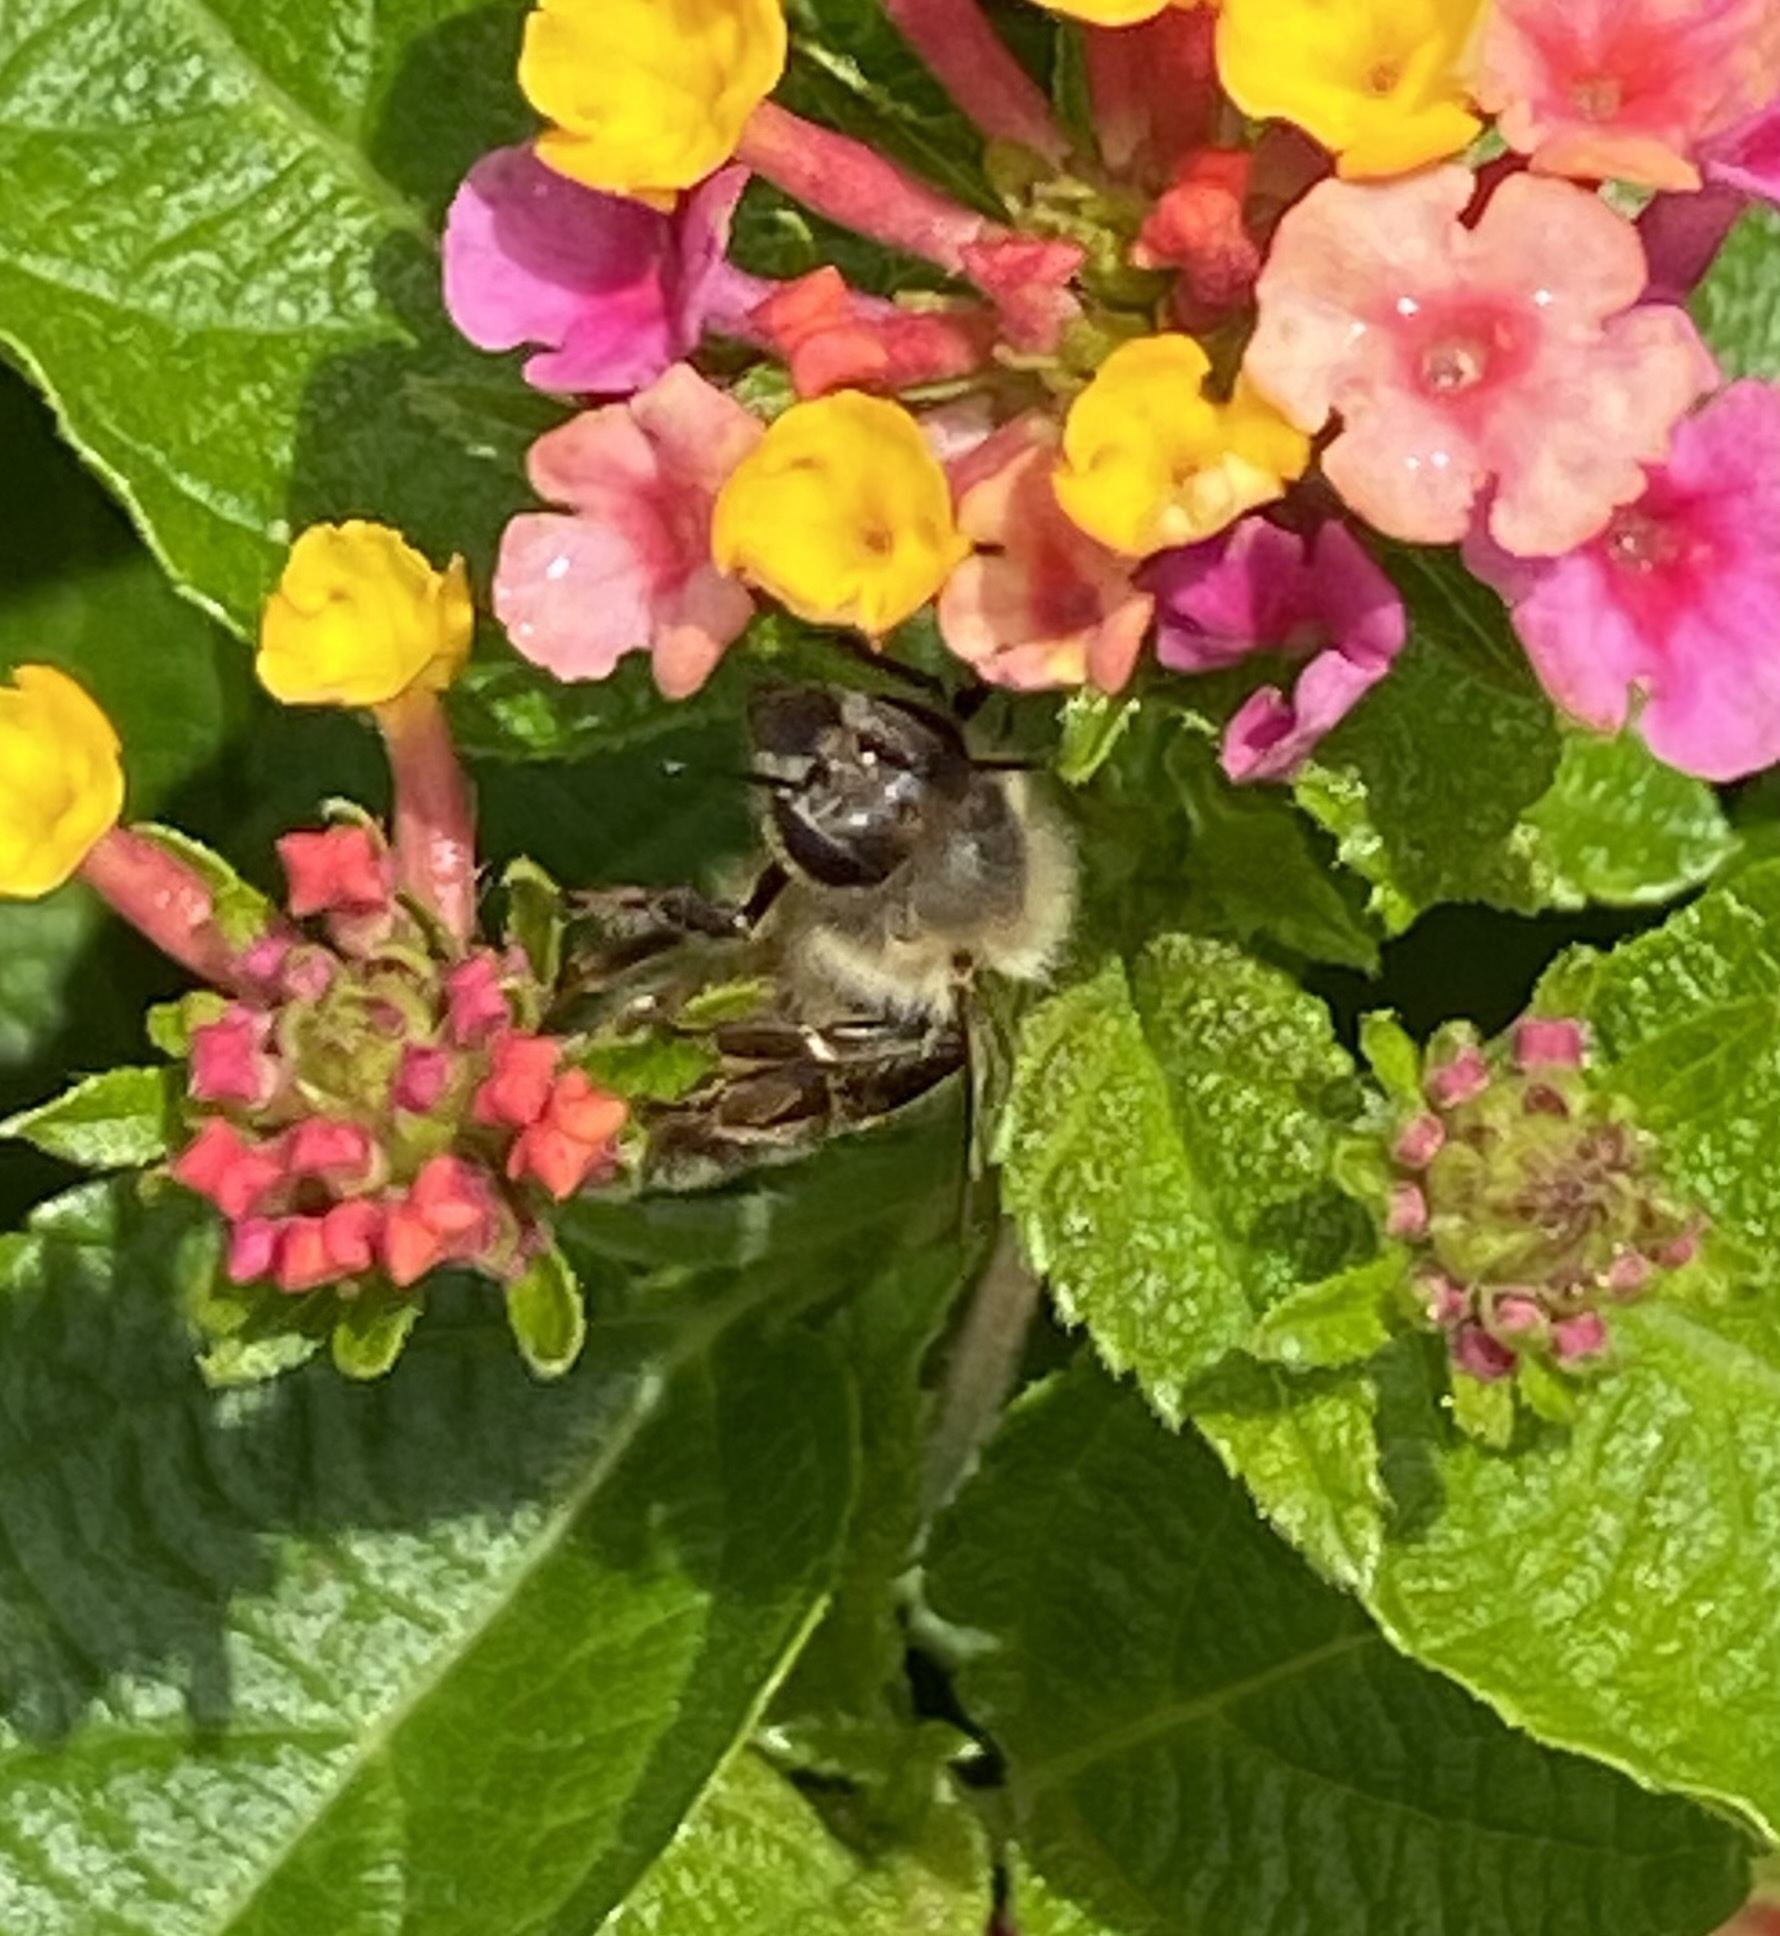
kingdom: Animalia
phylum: Arthropoda
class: Insecta
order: Hymenoptera
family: Apidae
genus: Apis
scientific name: Apis mellifera
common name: Honey bee
